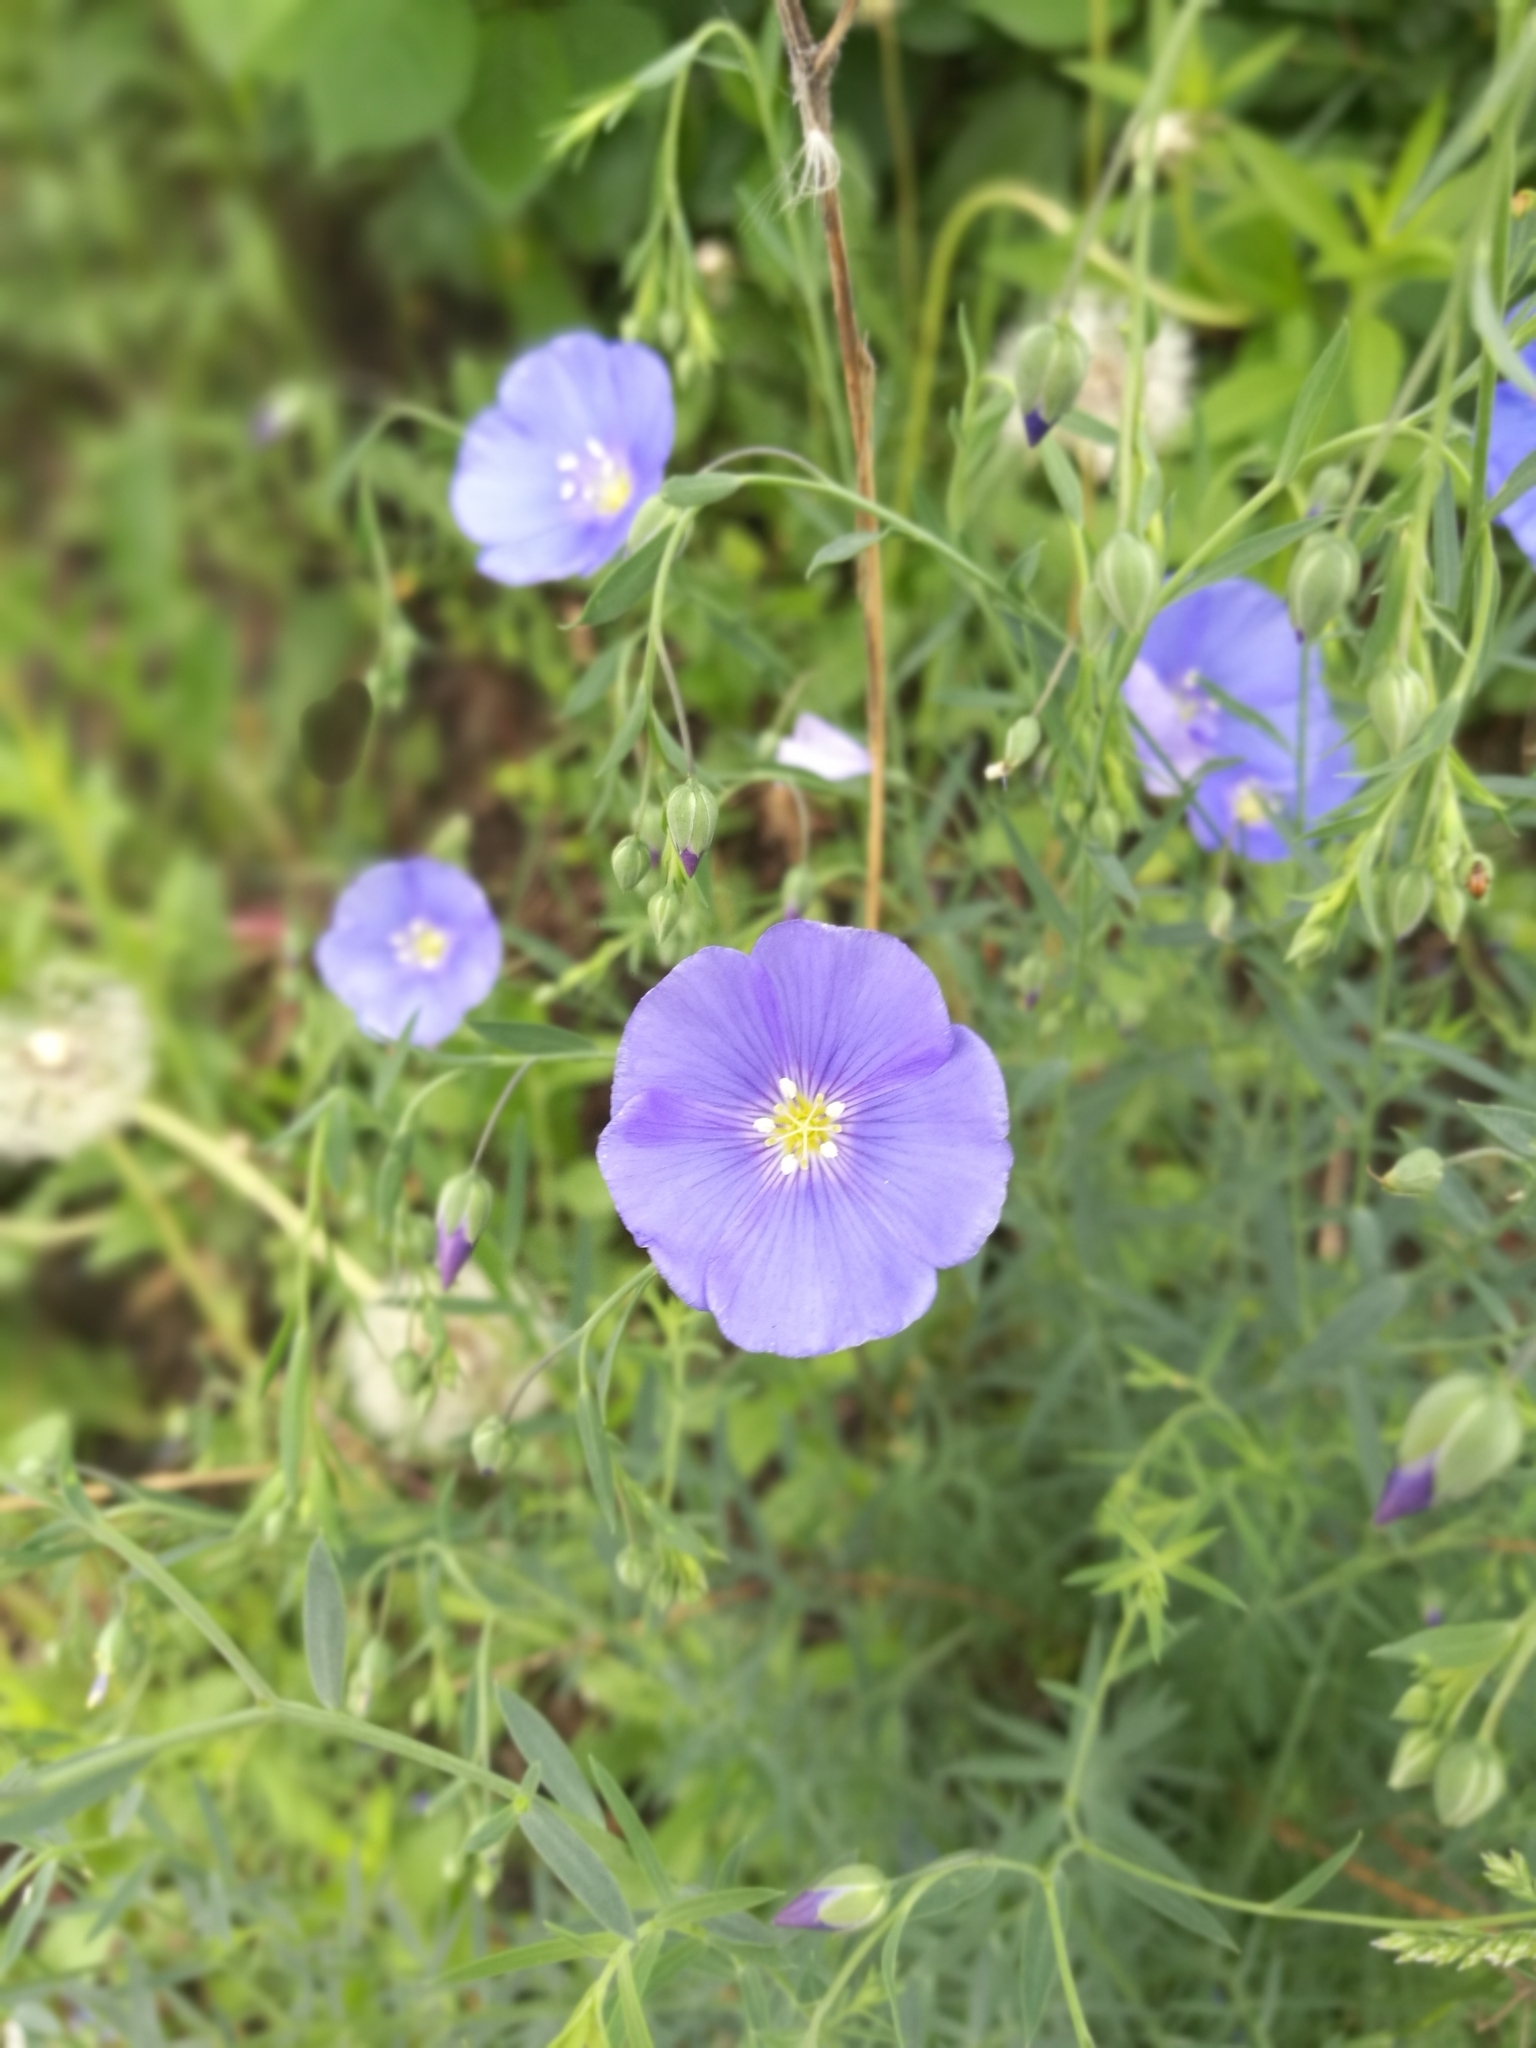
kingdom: Plantae
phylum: Tracheophyta
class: Magnoliopsida
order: Malpighiales
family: Linaceae
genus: Linum
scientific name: Linum perenne
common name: Blue flax
